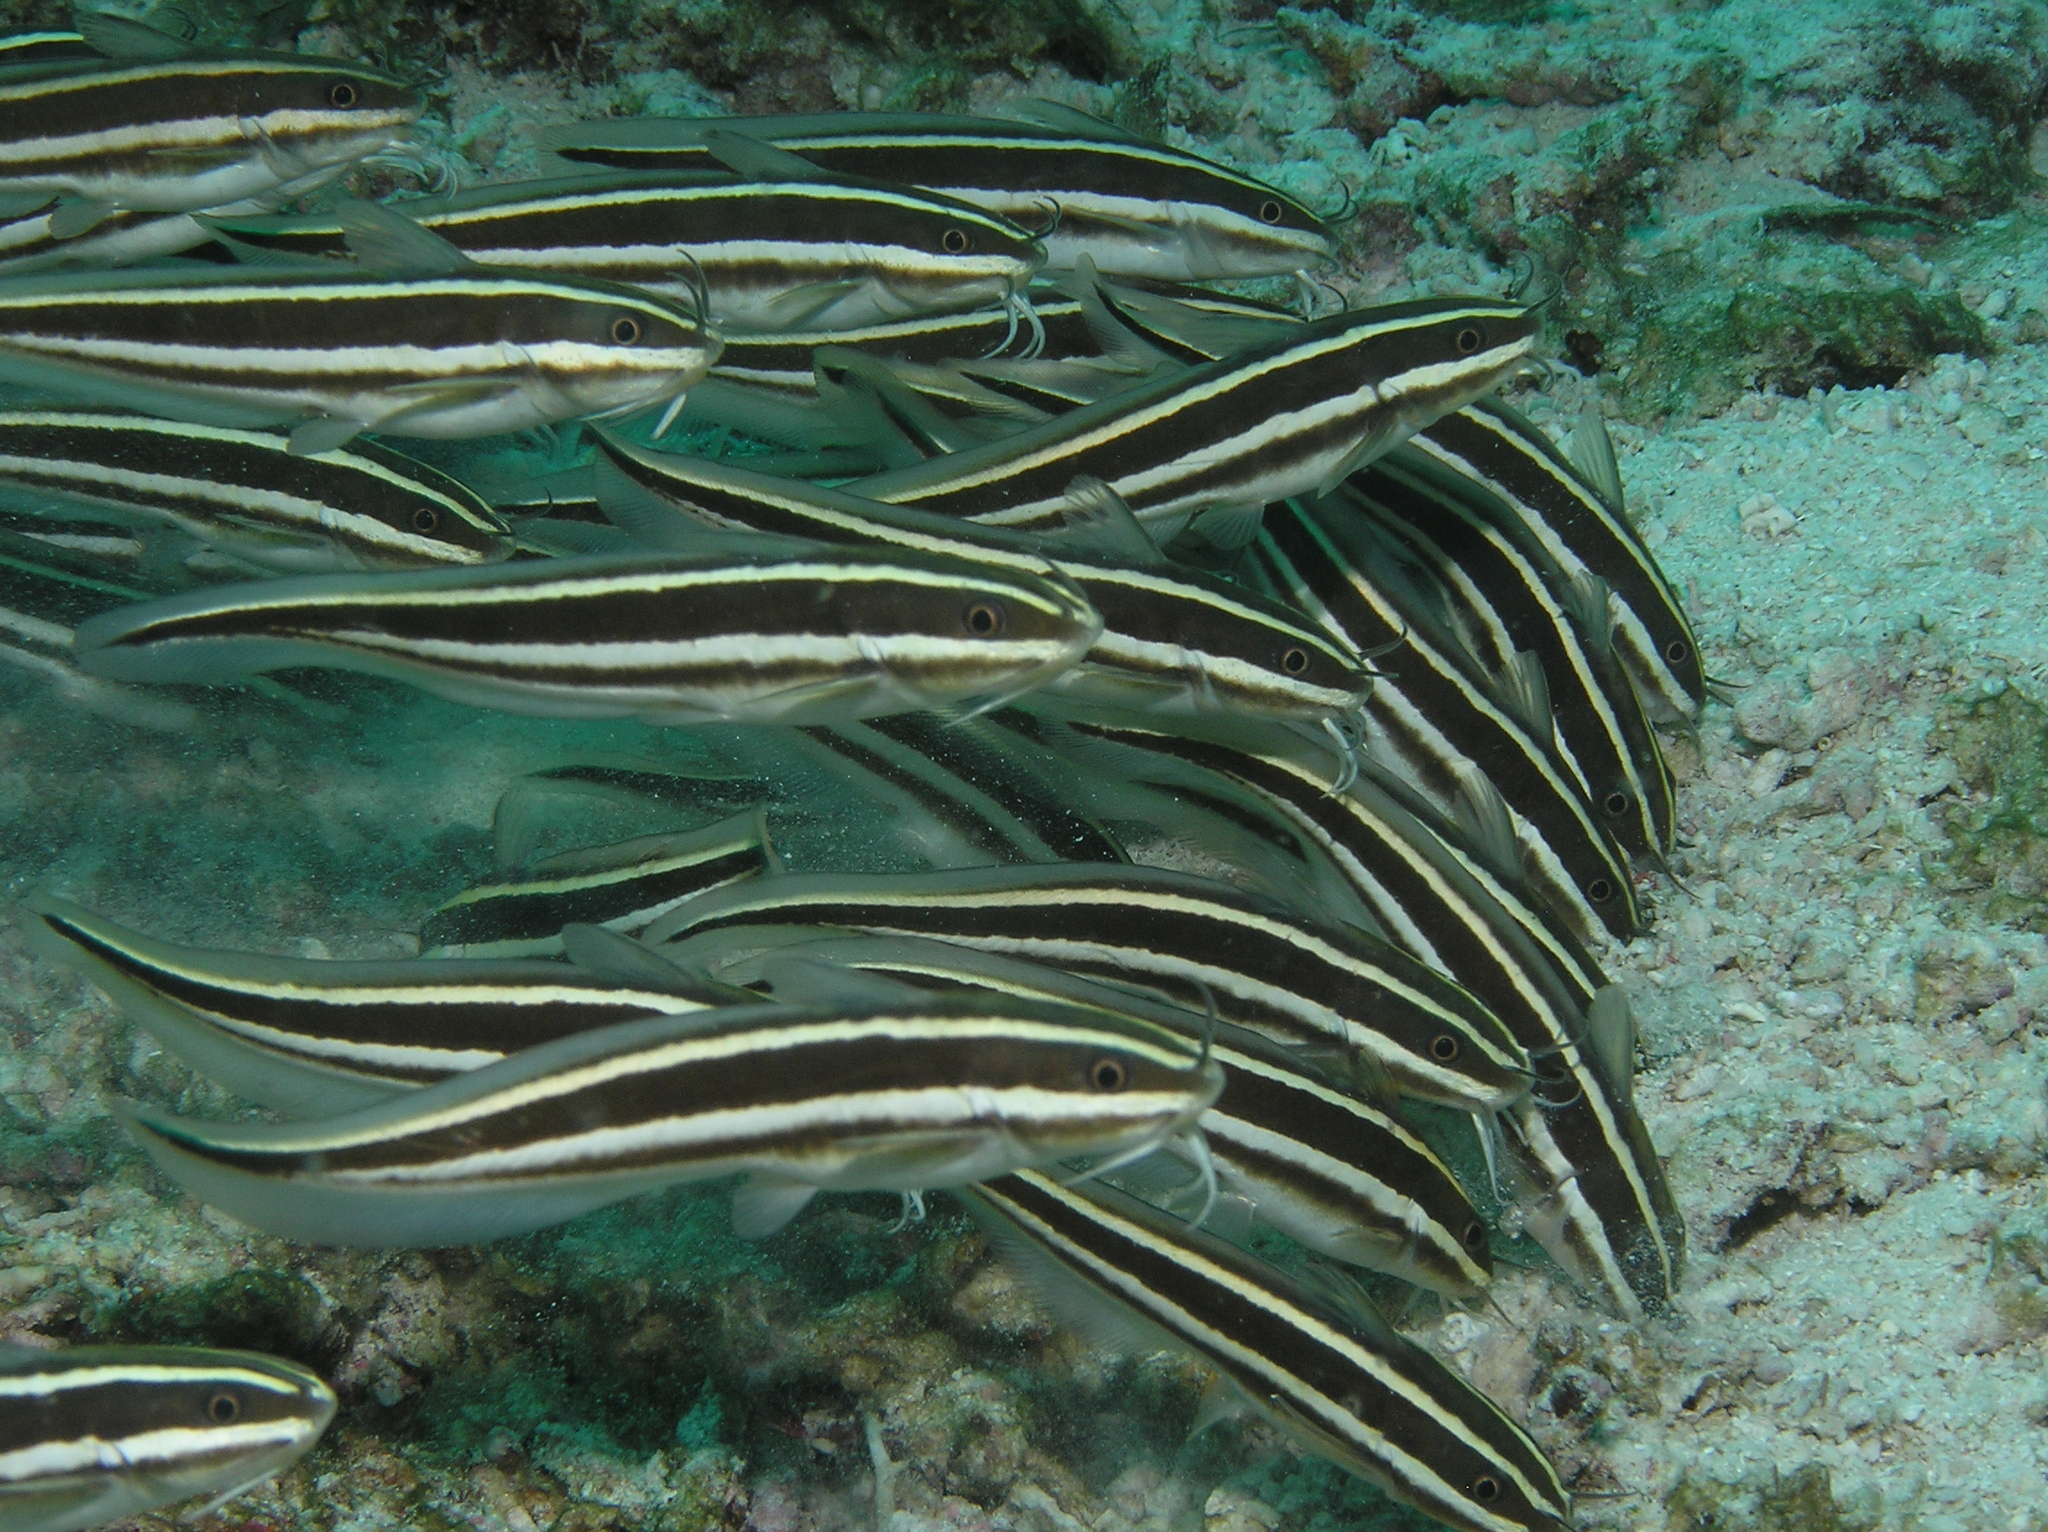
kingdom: Animalia
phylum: Chordata
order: Siluriformes
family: Plotosidae
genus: Plotosus
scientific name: Plotosus lineatus
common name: Striped eel catfish
